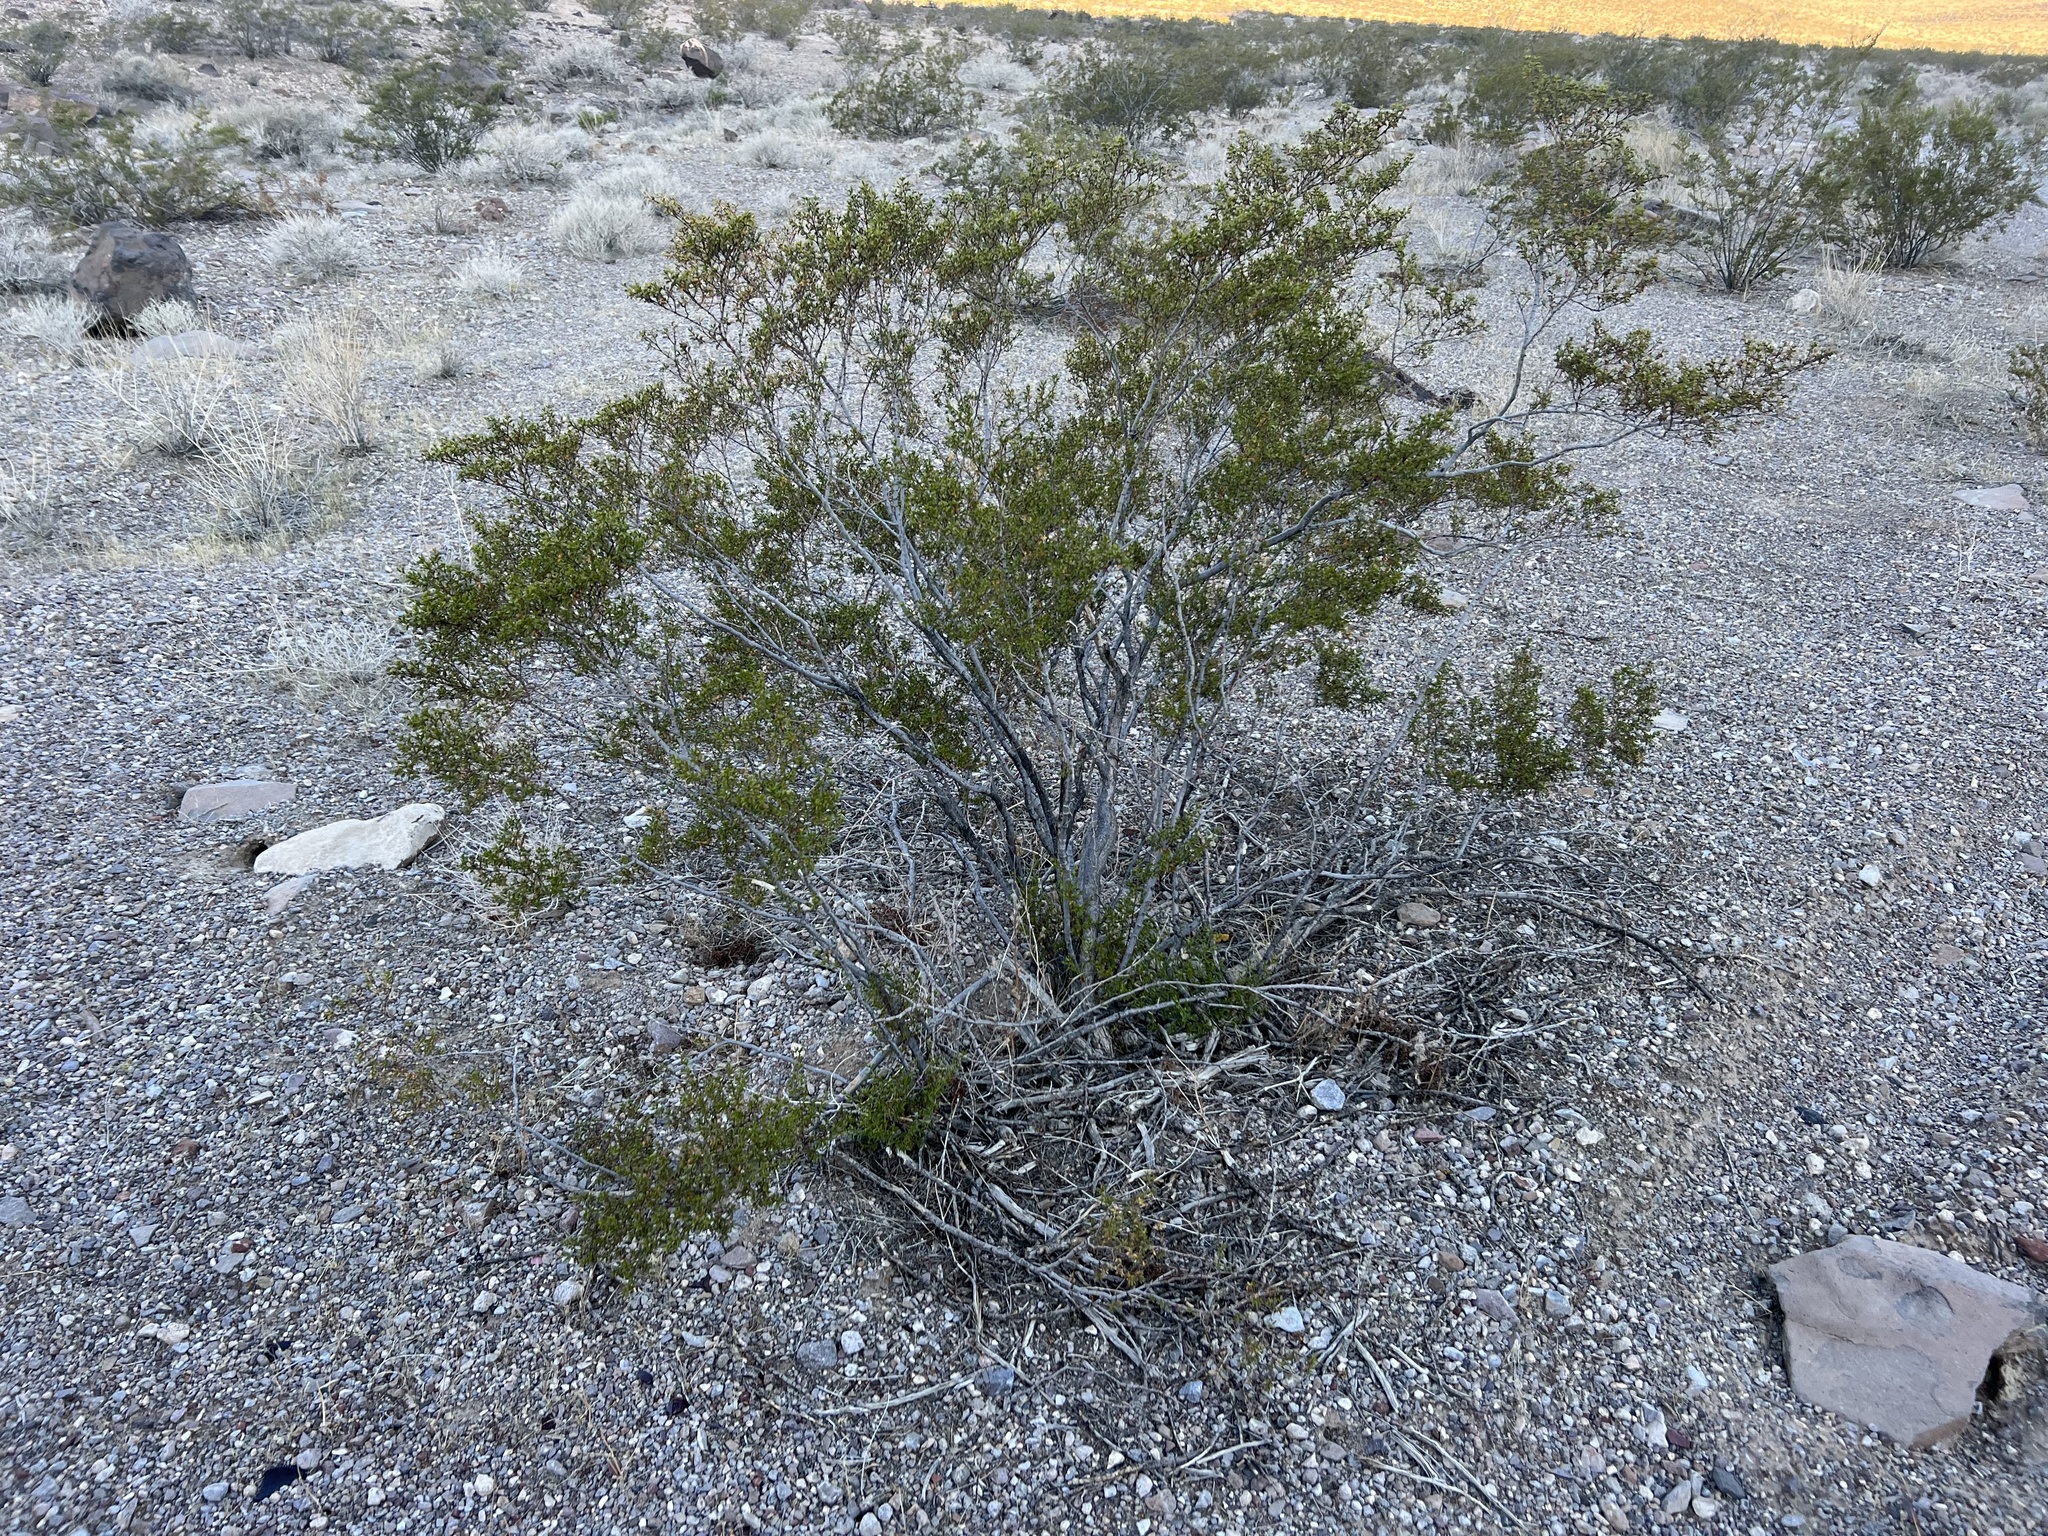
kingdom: Plantae
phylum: Tracheophyta
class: Magnoliopsida
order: Zygophyllales
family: Zygophyllaceae
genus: Larrea
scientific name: Larrea tridentata
